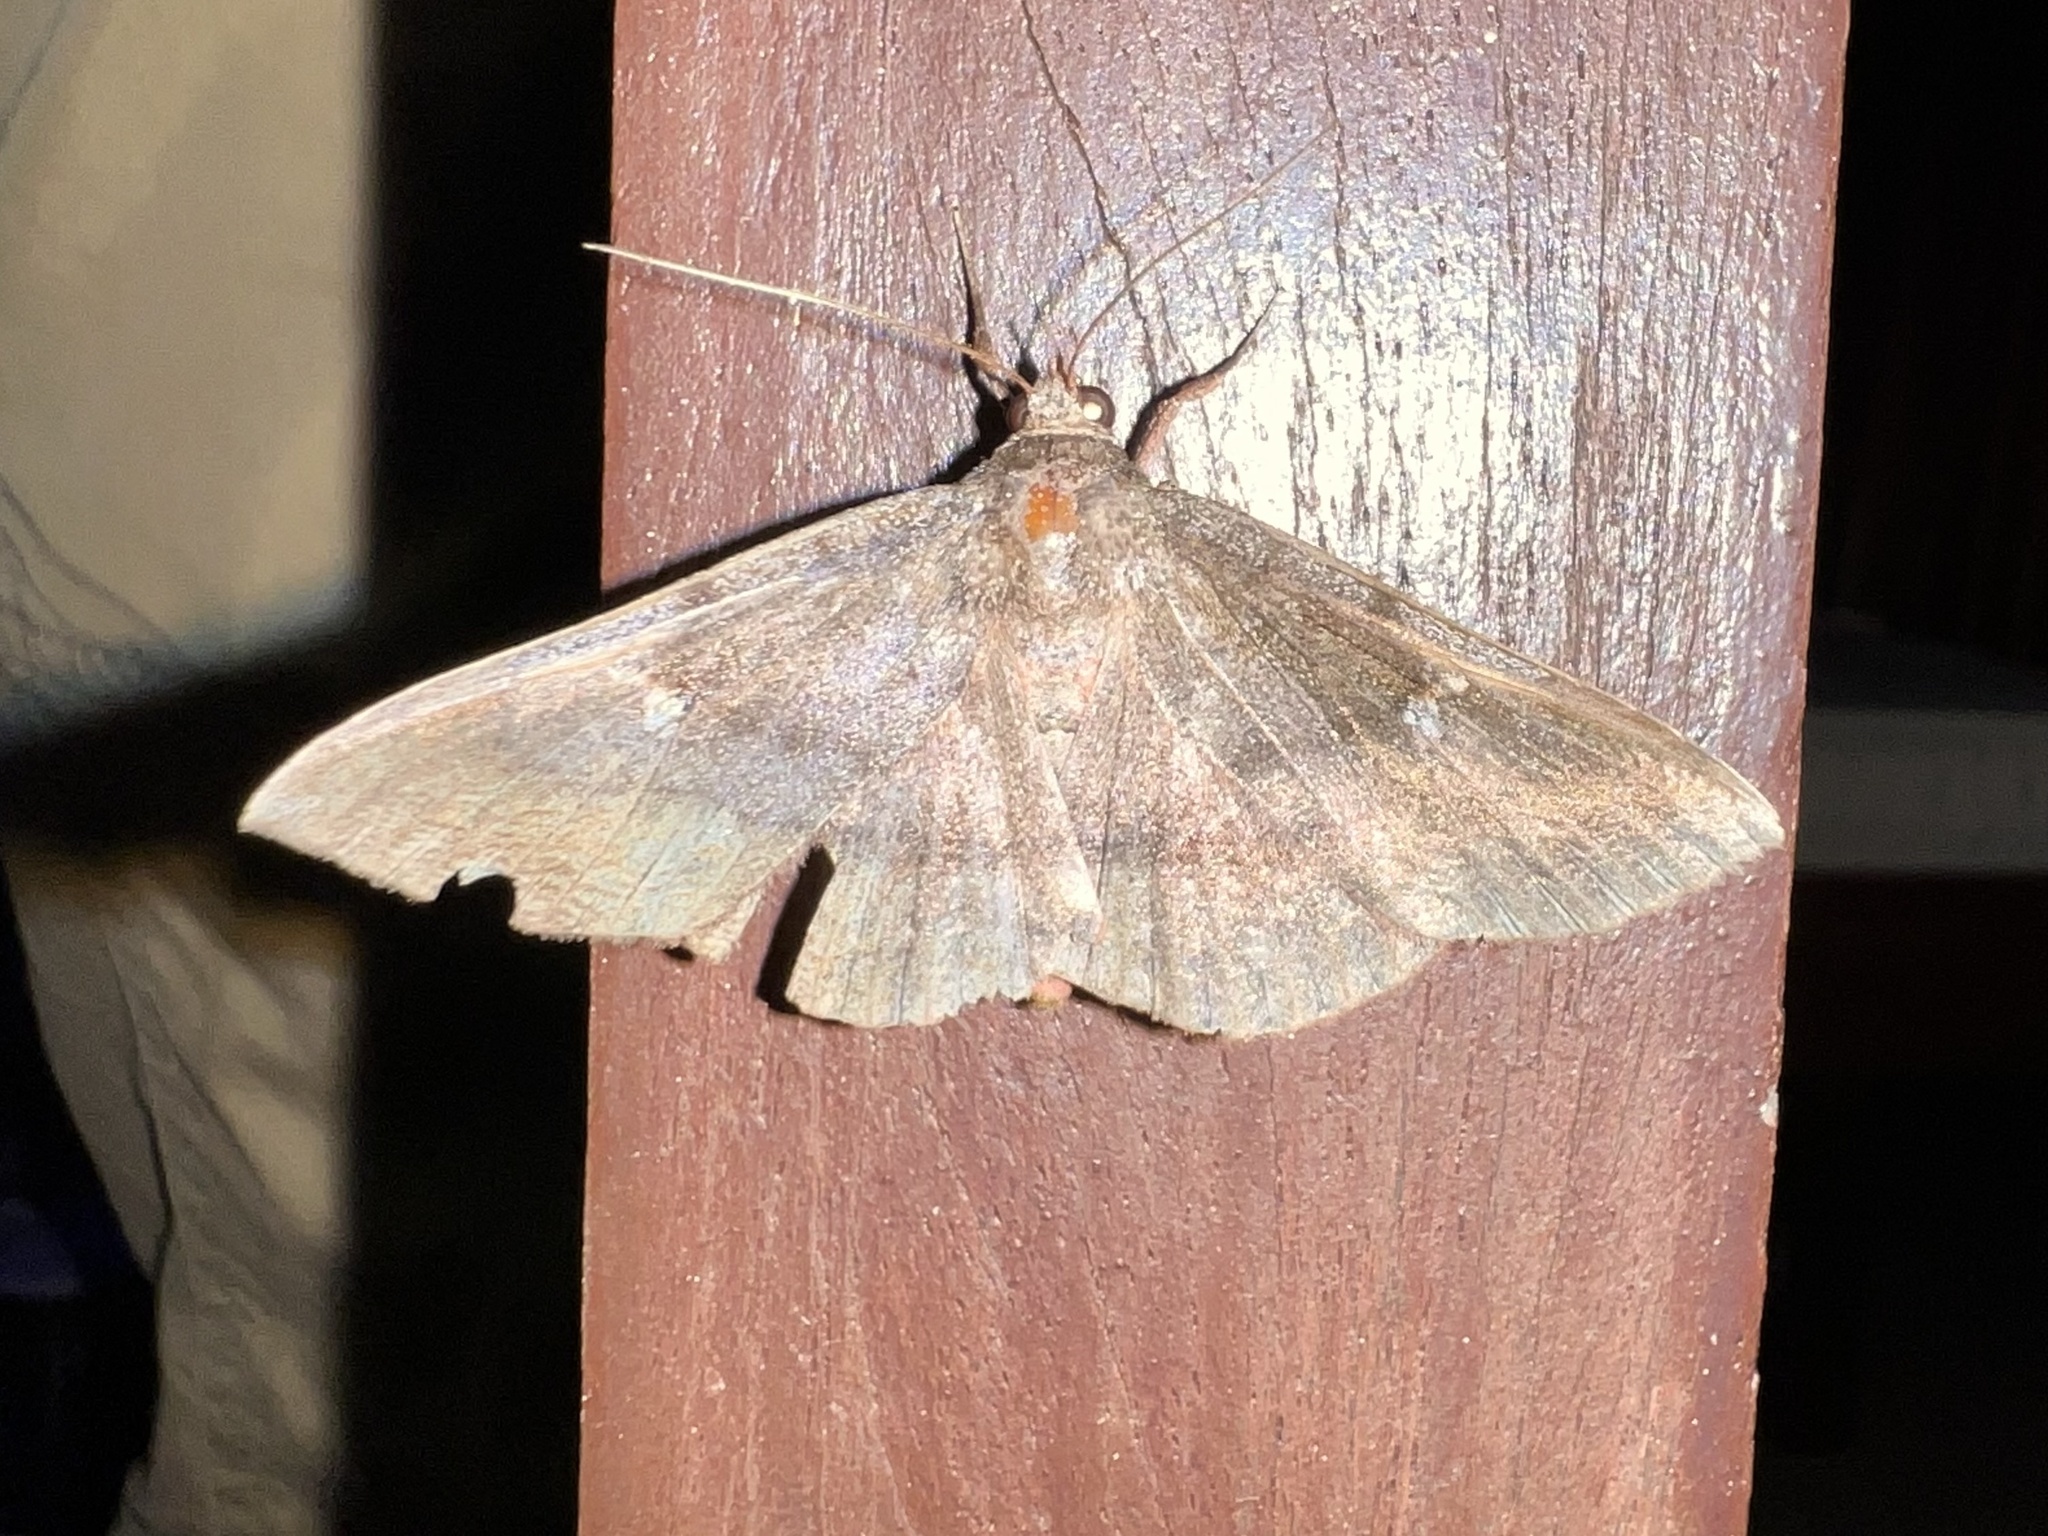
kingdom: Animalia
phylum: Arthropoda
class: Insecta
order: Lepidoptera
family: Erebidae
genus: Azeta
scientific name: Azeta melanea
